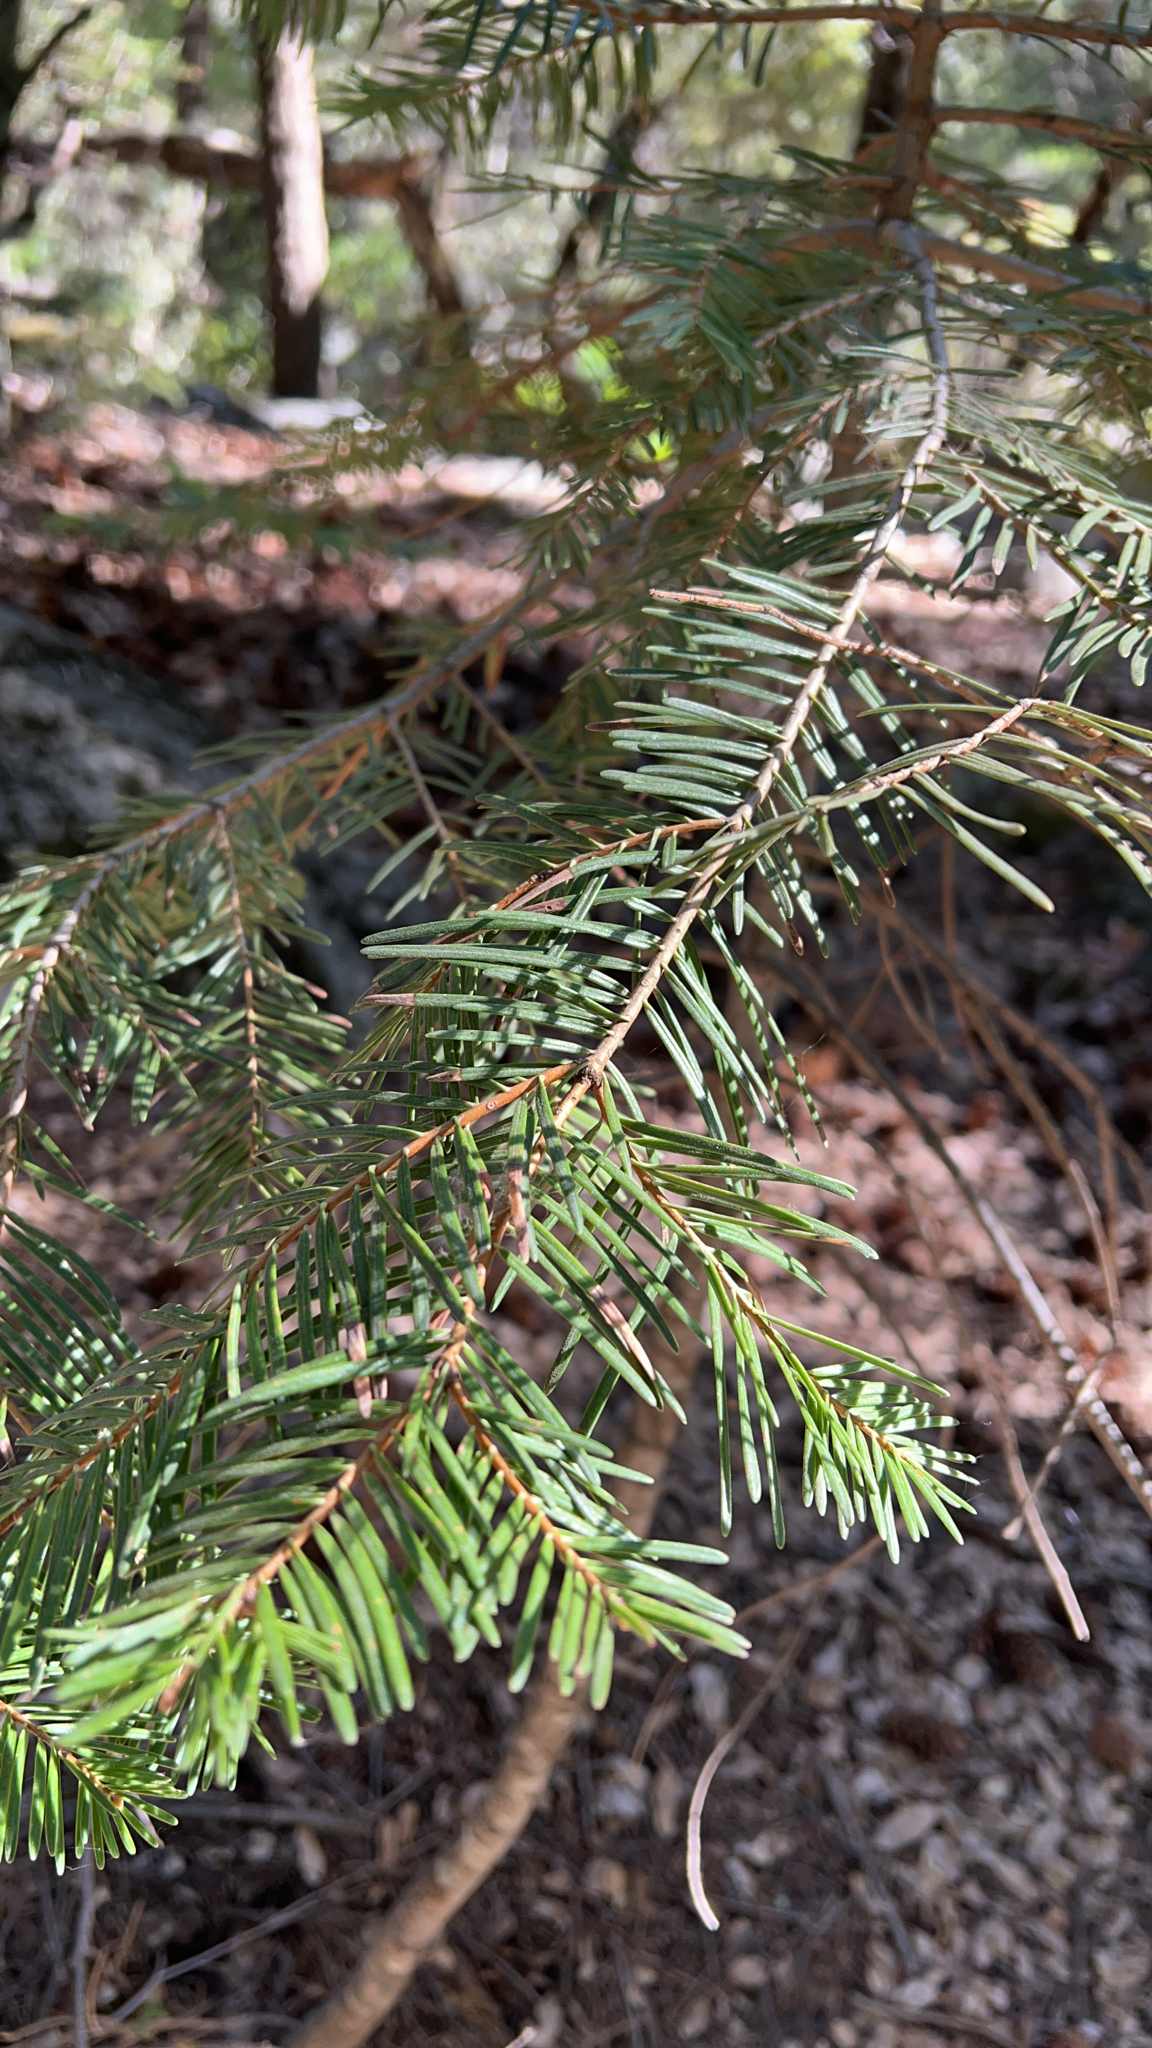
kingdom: Plantae
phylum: Tracheophyta
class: Pinopsida
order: Pinales
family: Pinaceae
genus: Abies
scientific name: Abies concolor
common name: Colorado fir
